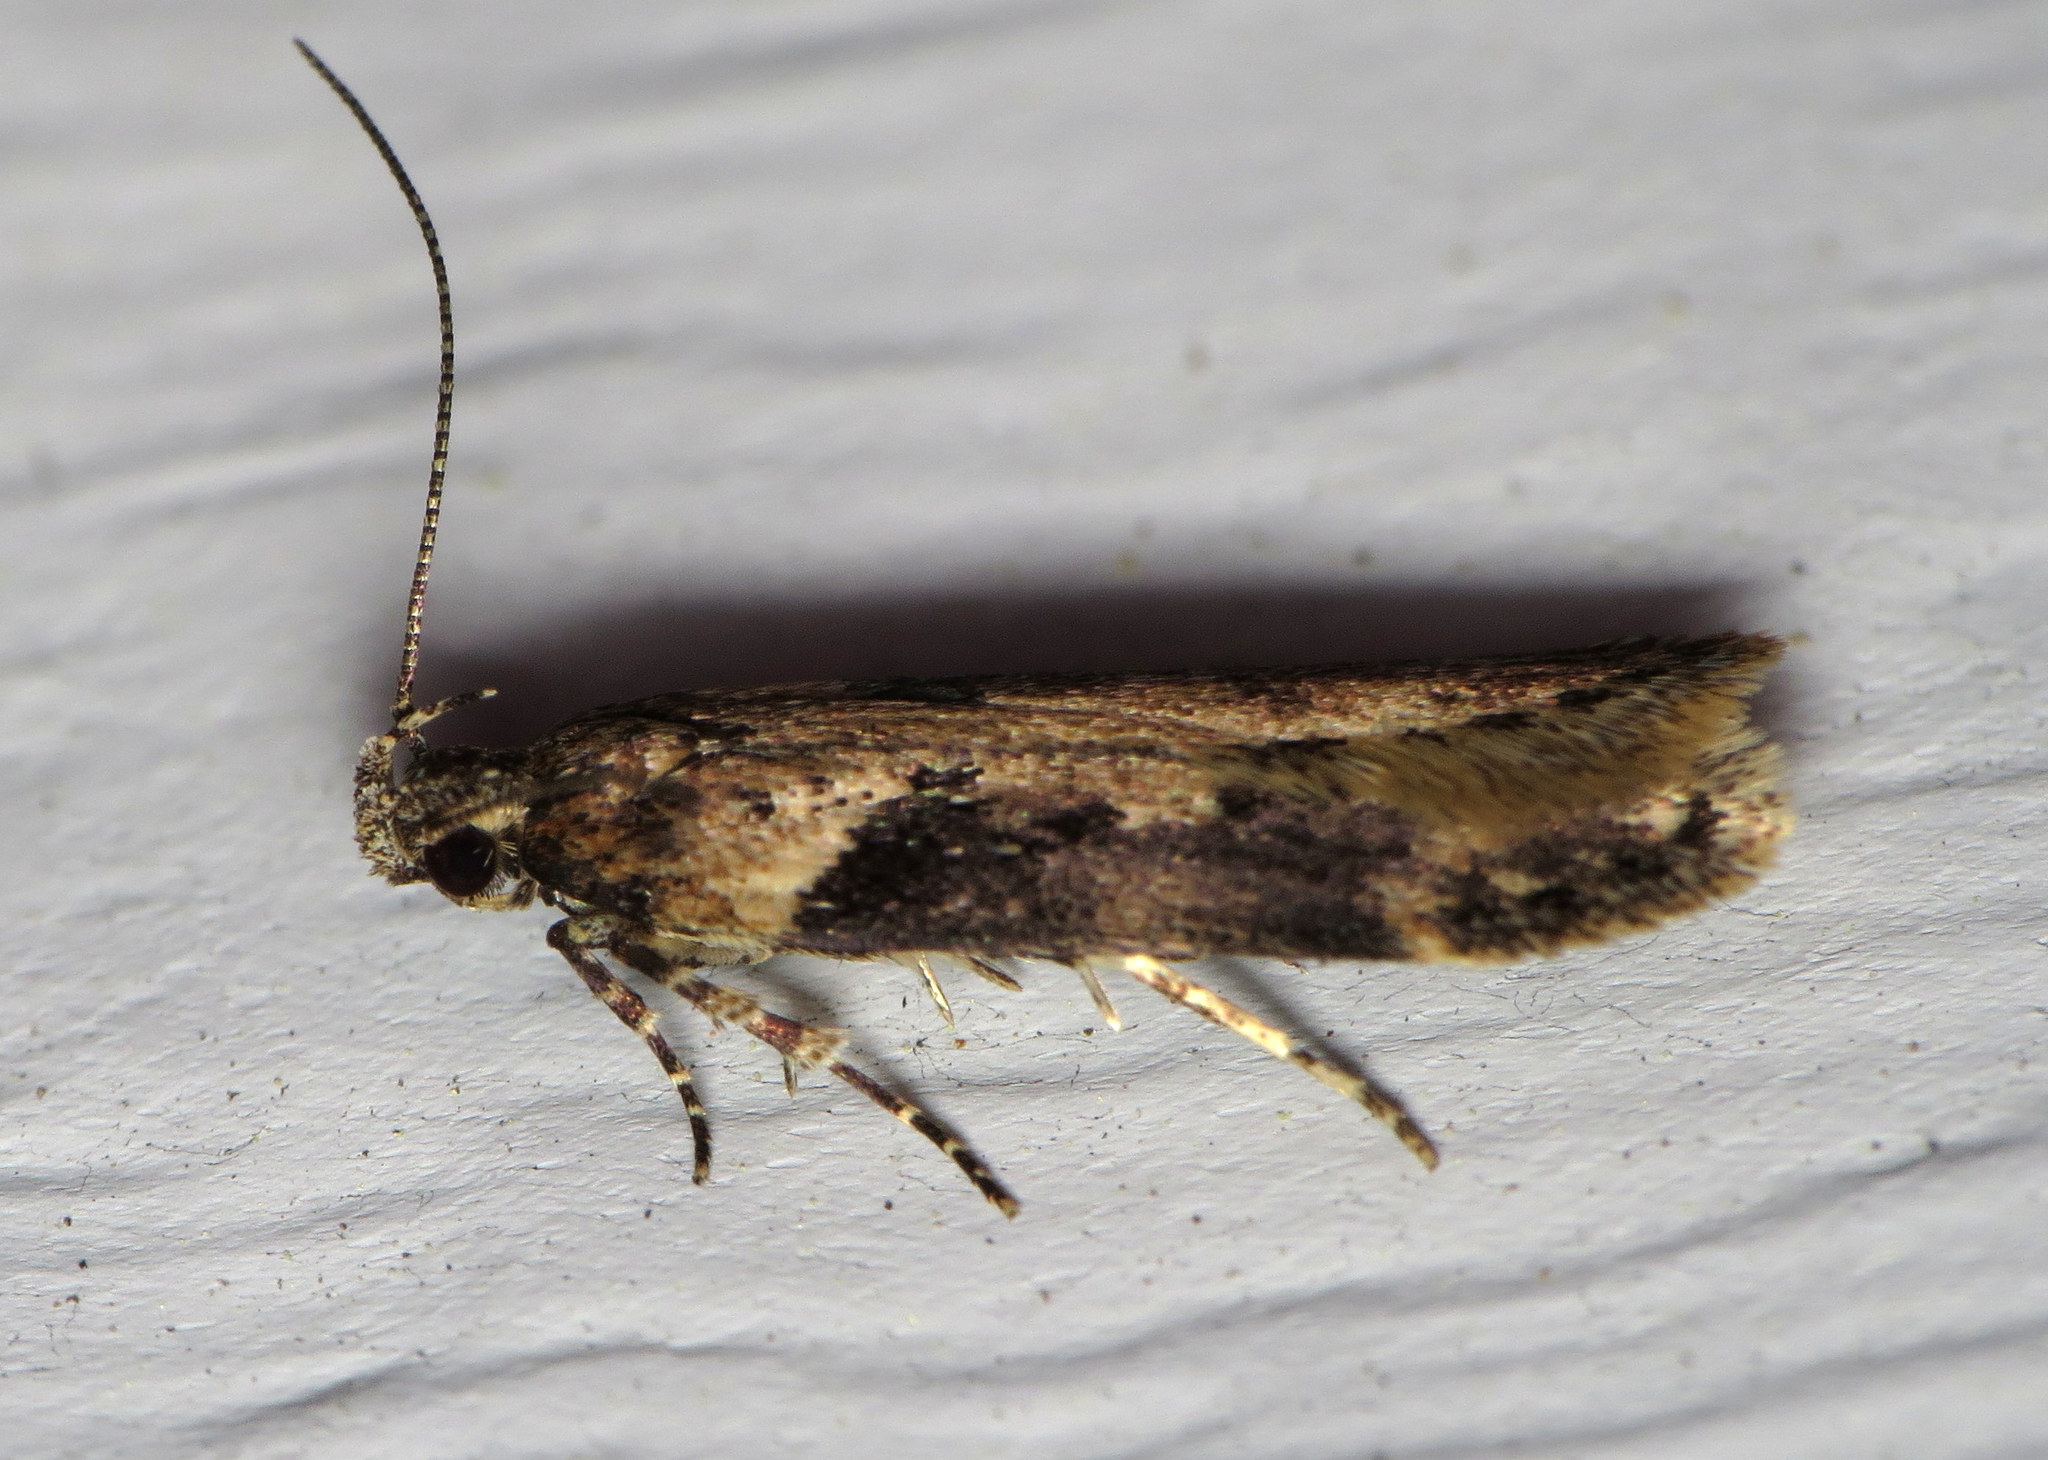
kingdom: Animalia
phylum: Arthropoda
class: Insecta
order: Lepidoptera
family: Gelechiidae
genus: Chionodes
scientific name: Chionodes mediofuscella
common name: Black-smudged chionodes moth
